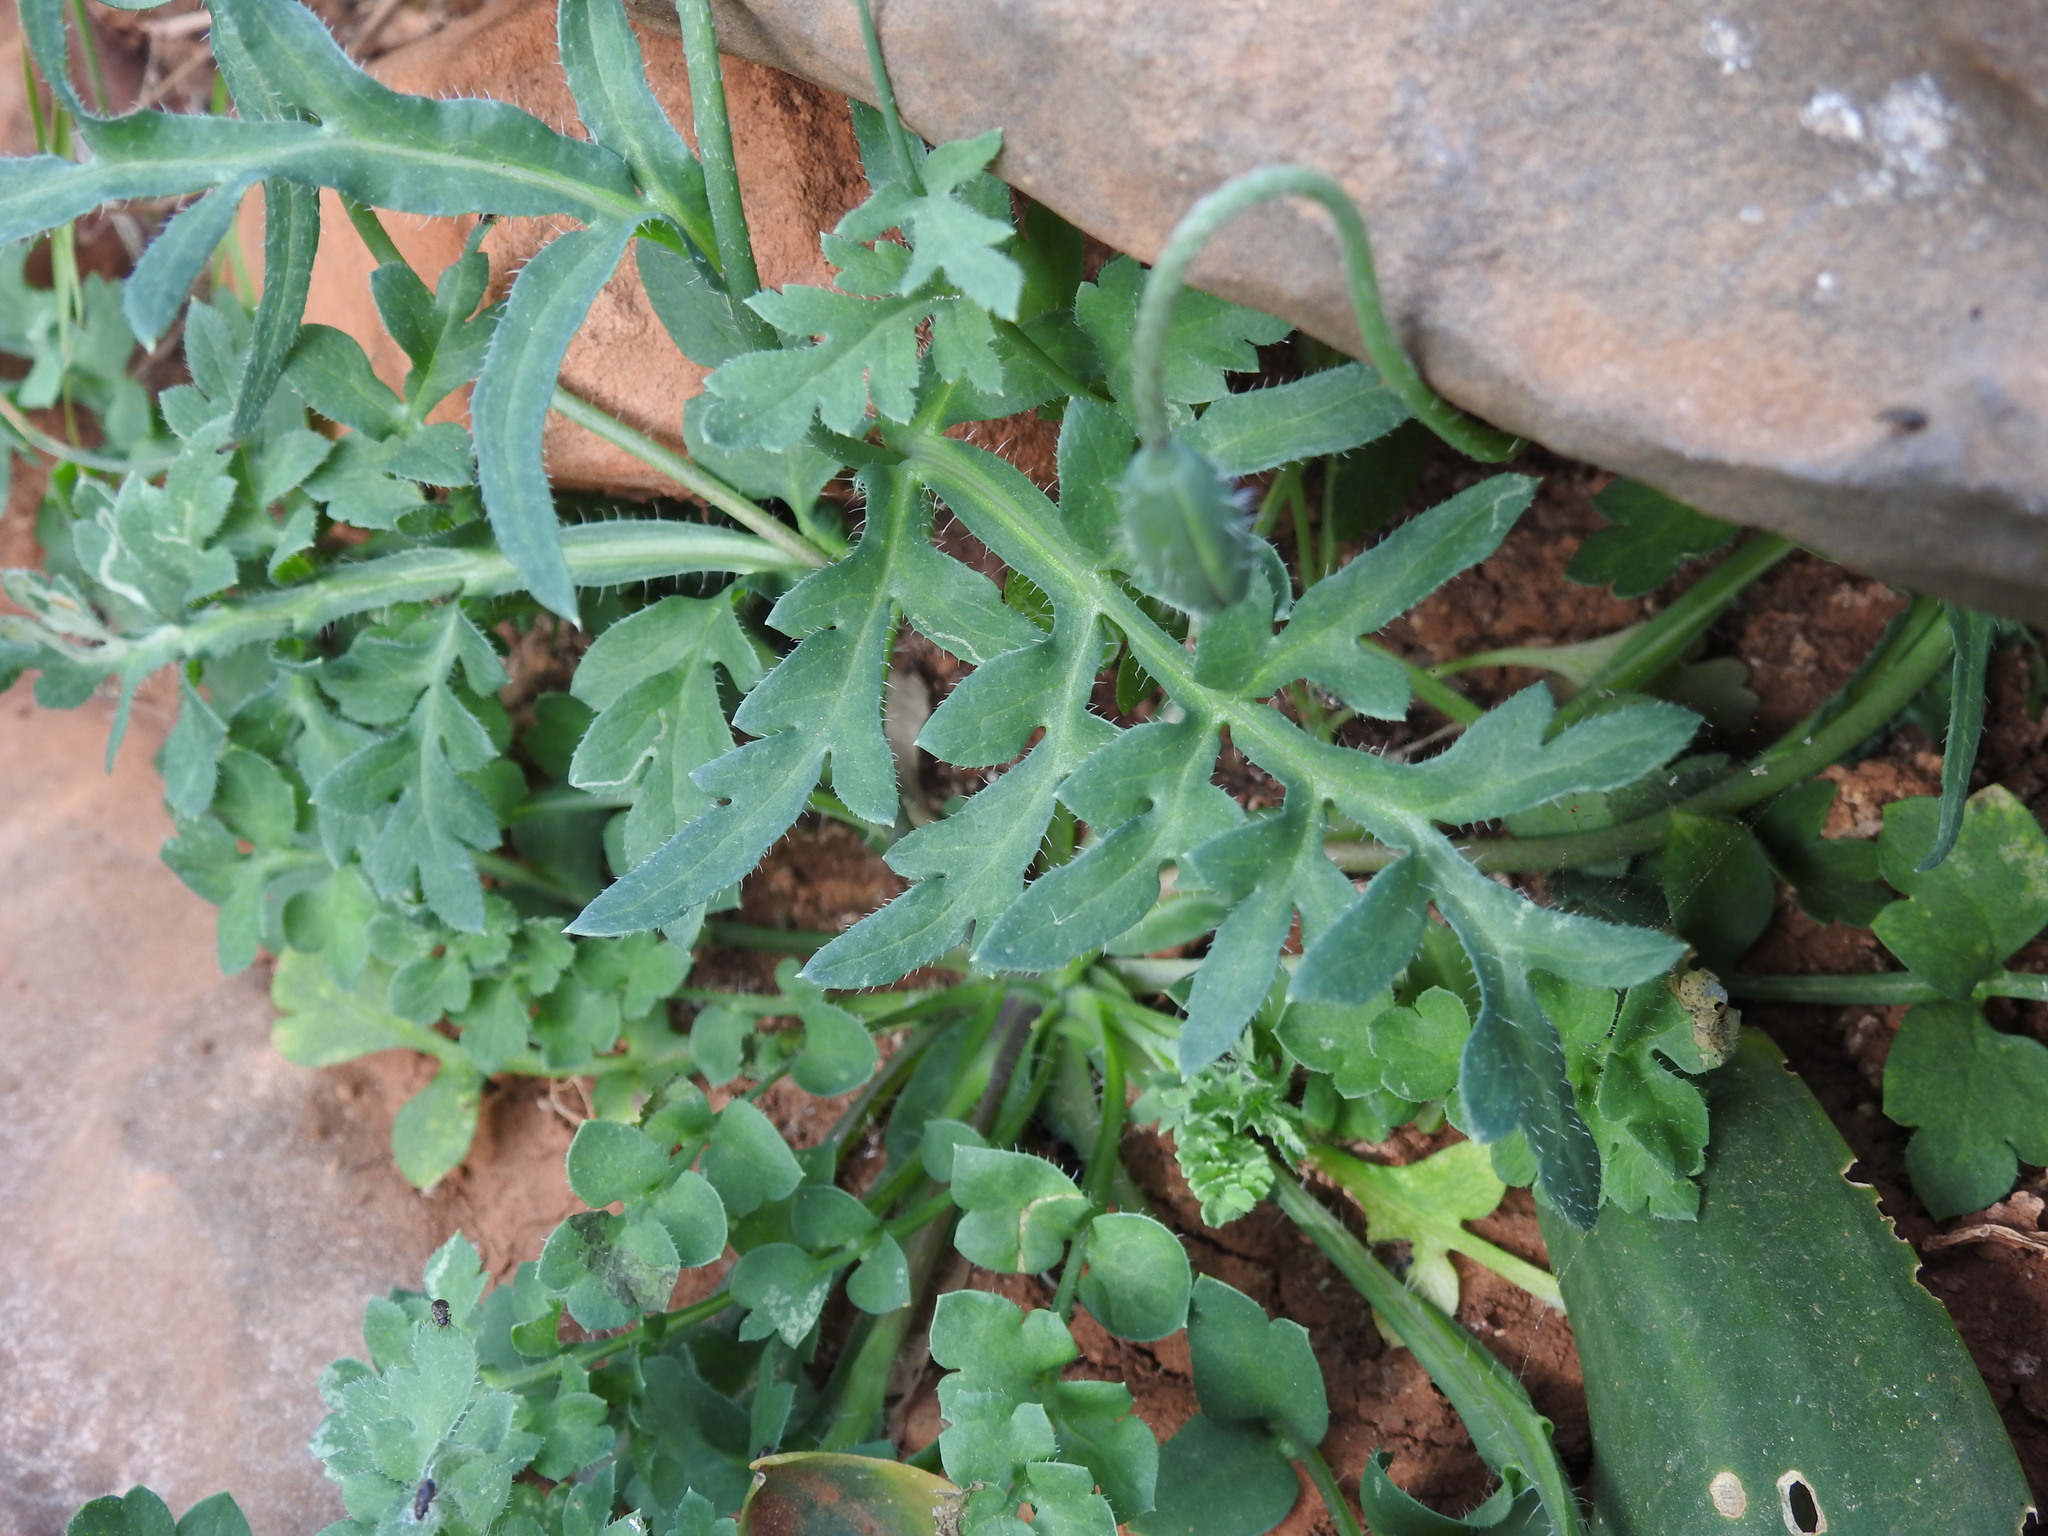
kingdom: Plantae
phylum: Tracheophyta
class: Magnoliopsida
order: Ranunculales
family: Papaveraceae
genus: Papaver
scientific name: Papaver purpureomarginatum
